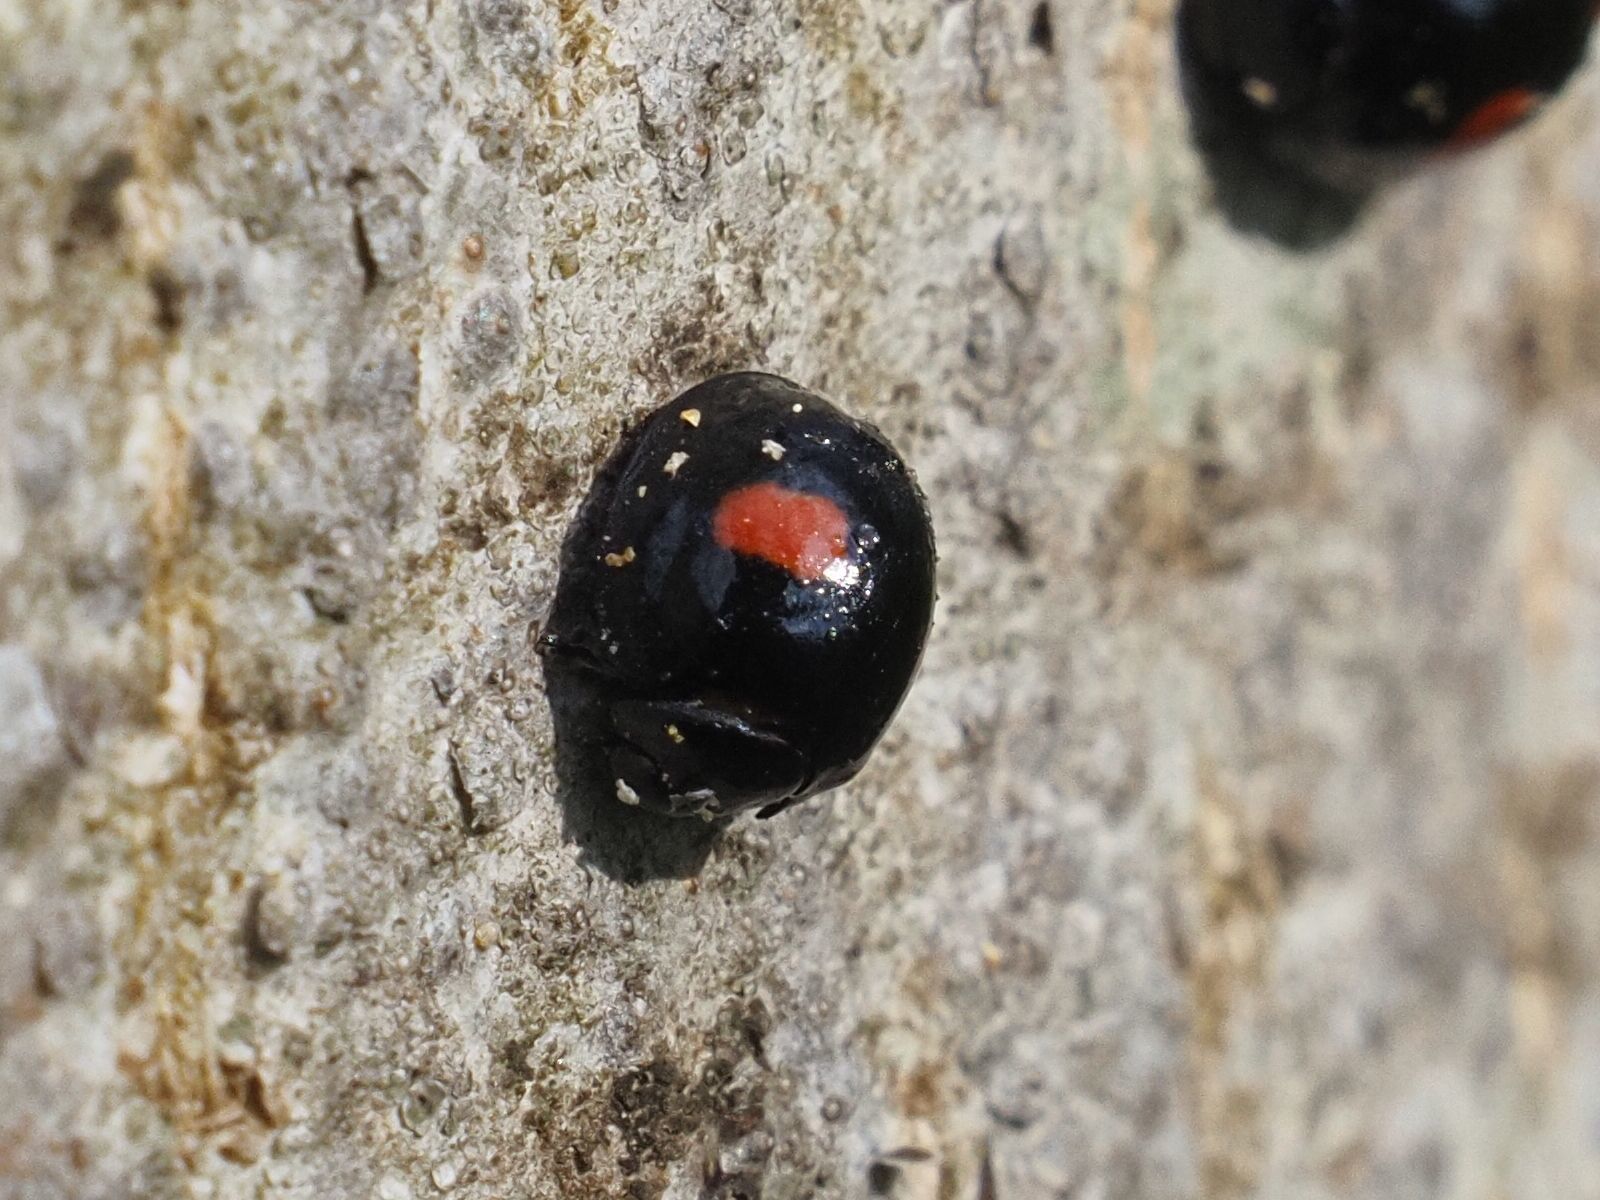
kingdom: Animalia
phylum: Arthropoda
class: Insecta
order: Coleoptera
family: Coccinellidae
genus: Chilocorus
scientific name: Chilocorus renipustulatus
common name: Kidney-spot ladybird
